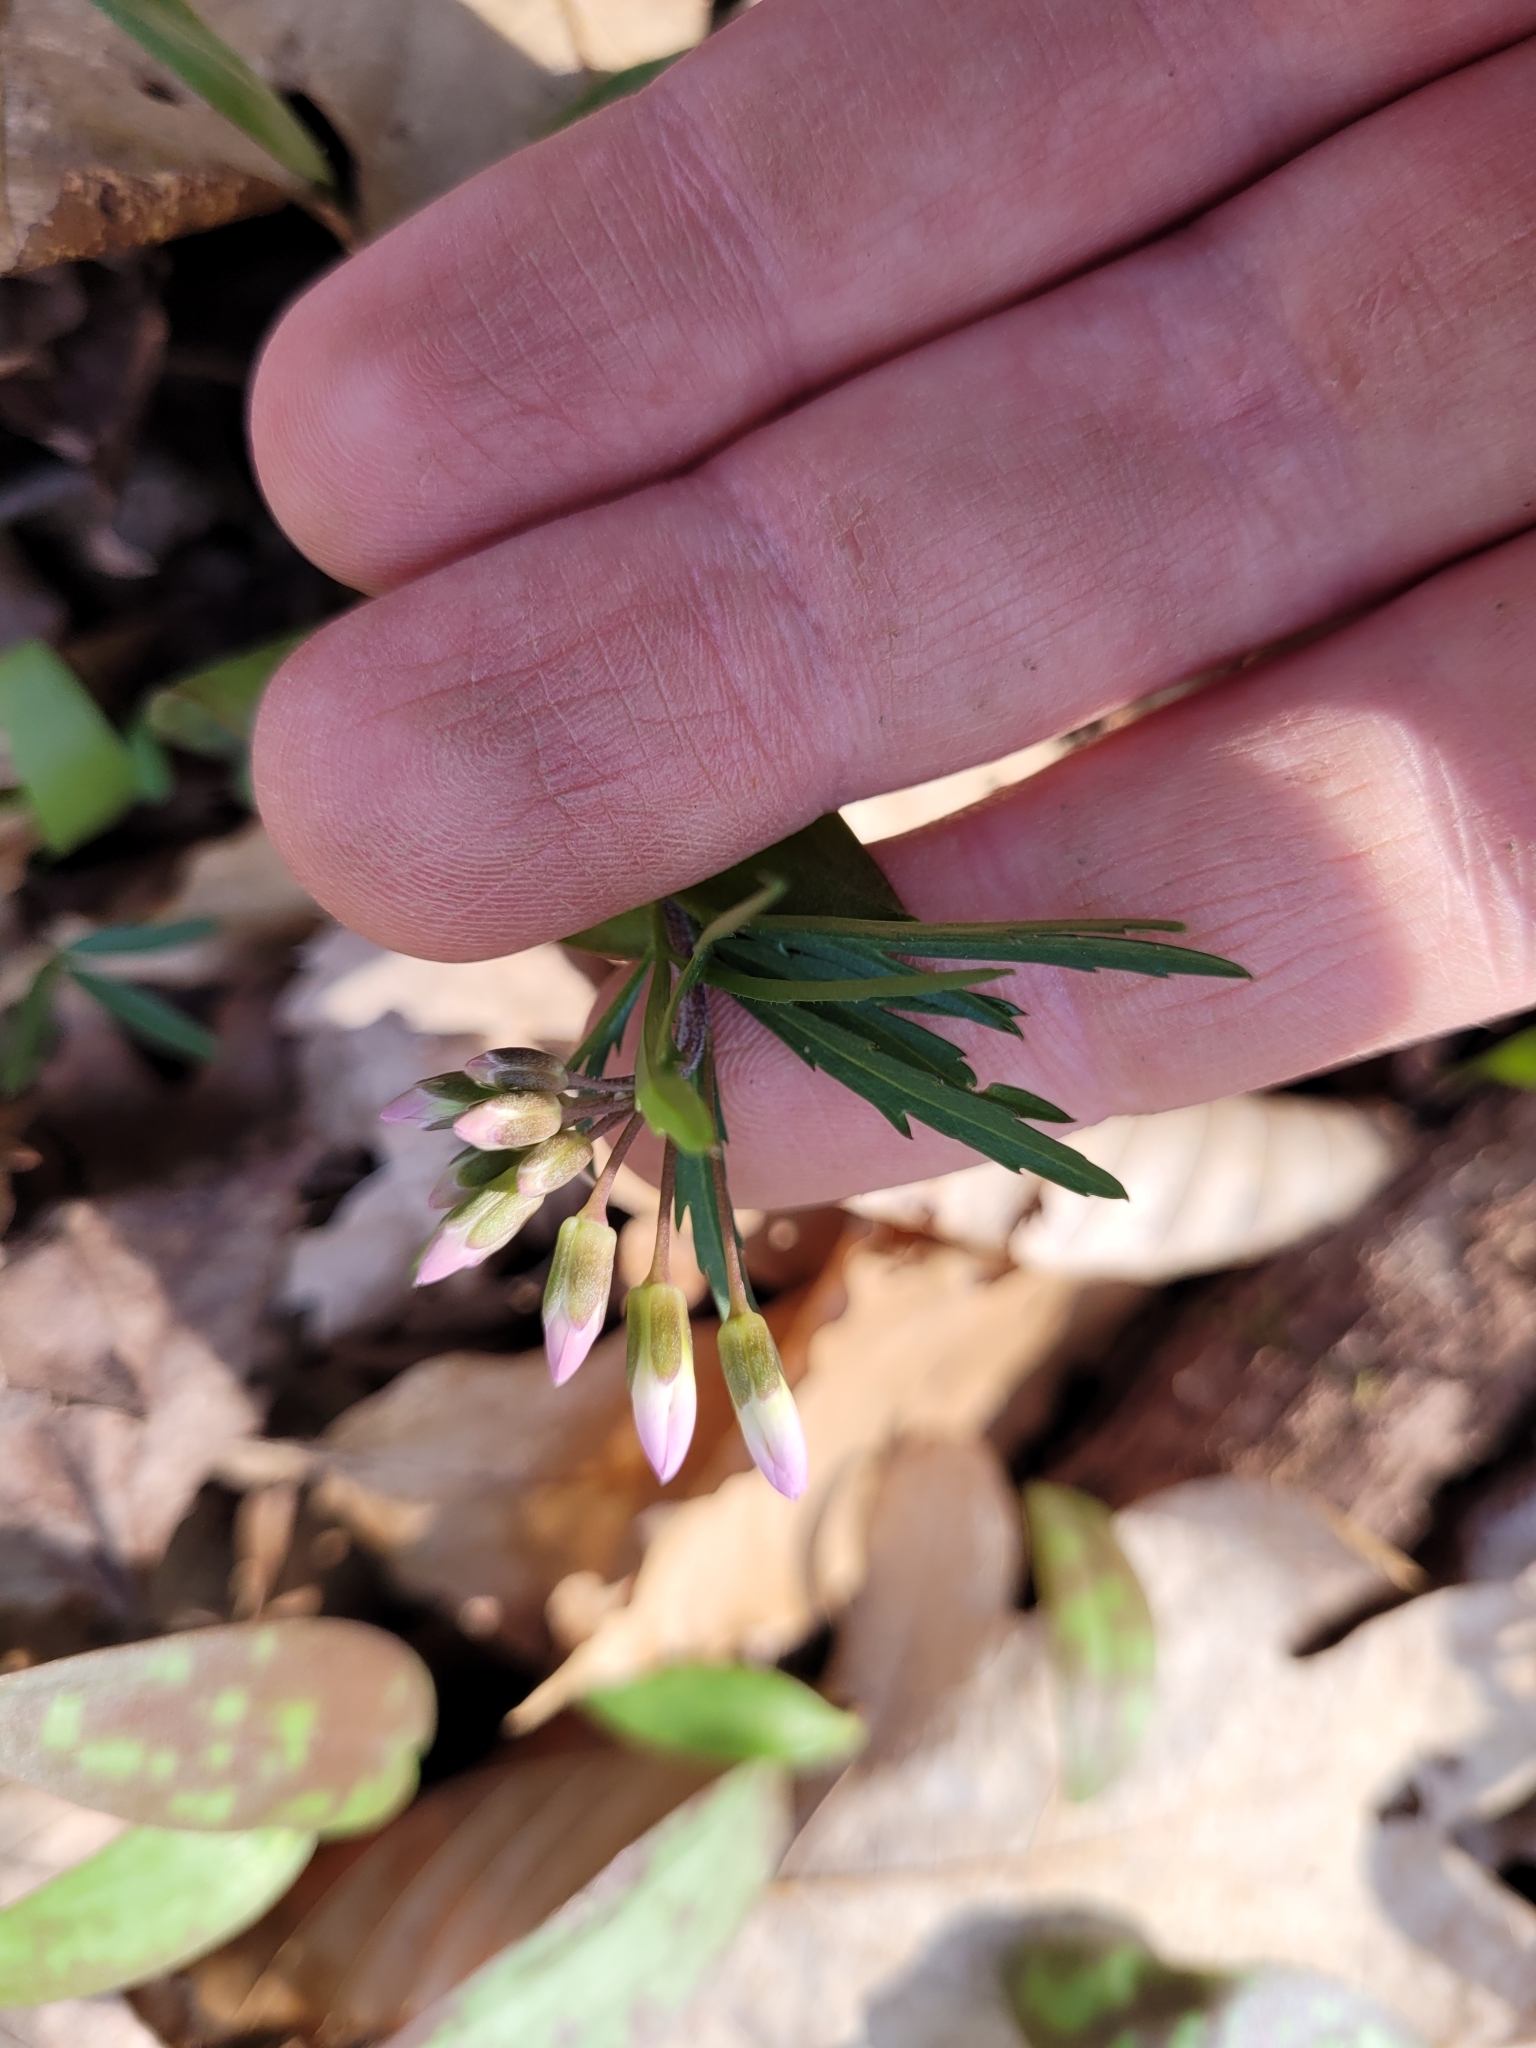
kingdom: Plantae
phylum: Tracheophyta
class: Magnoliopsida
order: Brassicales
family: Brassicaceae
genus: Cardamine
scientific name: Cardamine concatenata
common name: Cut-leaf toothcup
